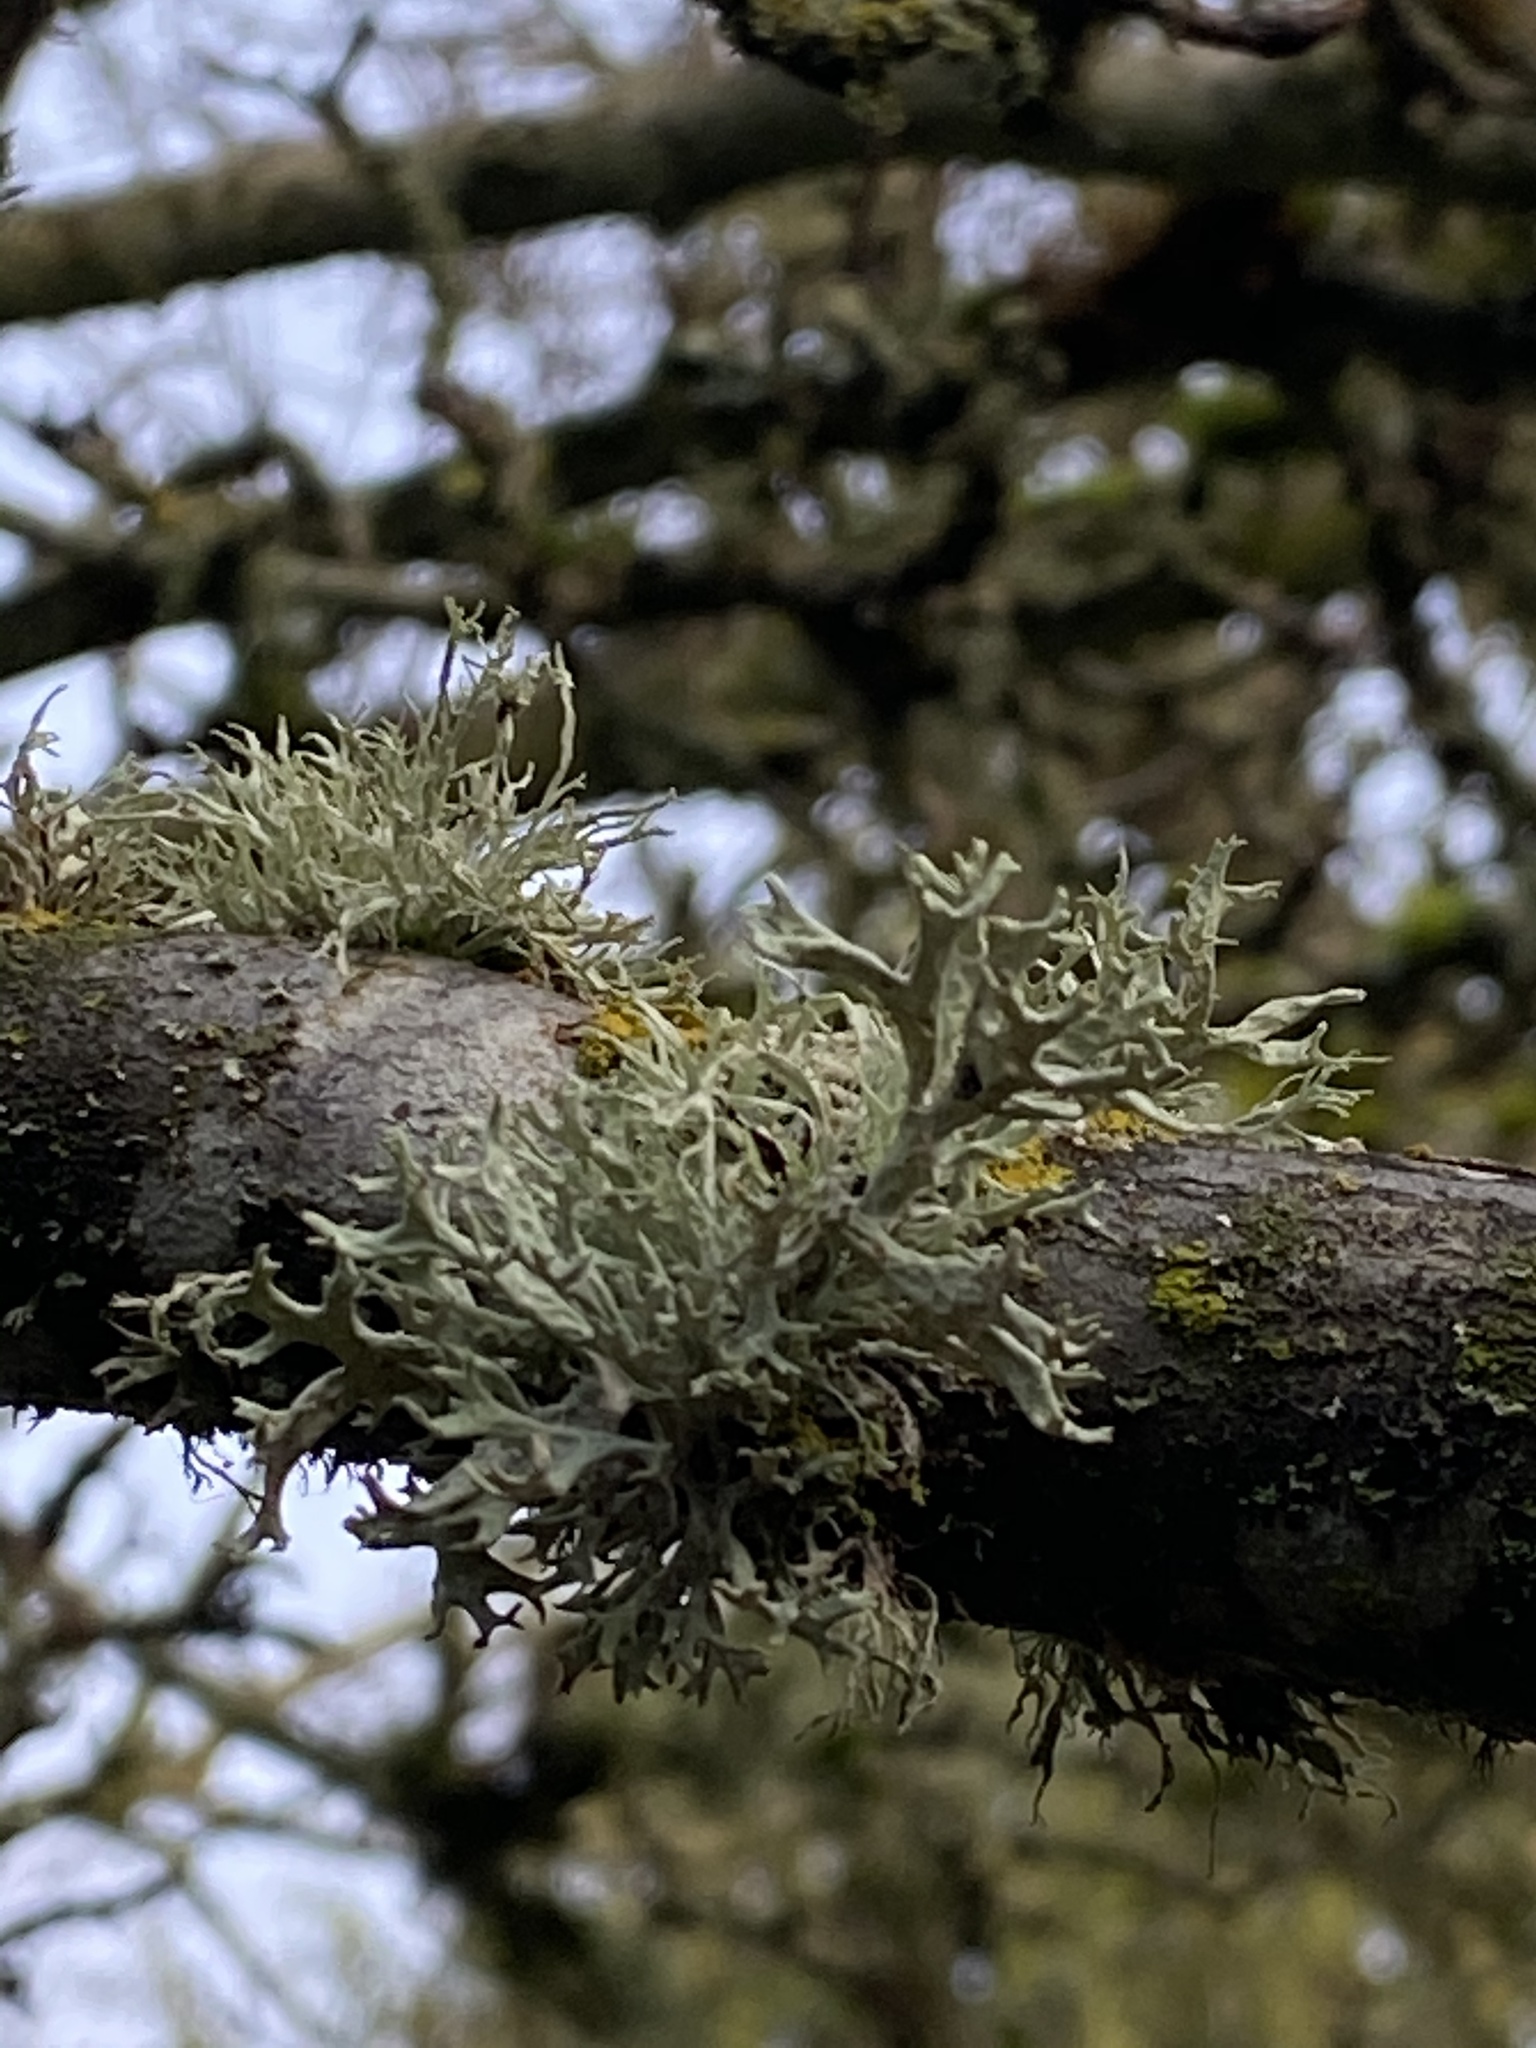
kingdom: Fungi
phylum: Ascomycota
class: Lecanoromycetes
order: Lecanorales
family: Parmeliaceae
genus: Evernia
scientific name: Evernia prunastri
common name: Oak moss
